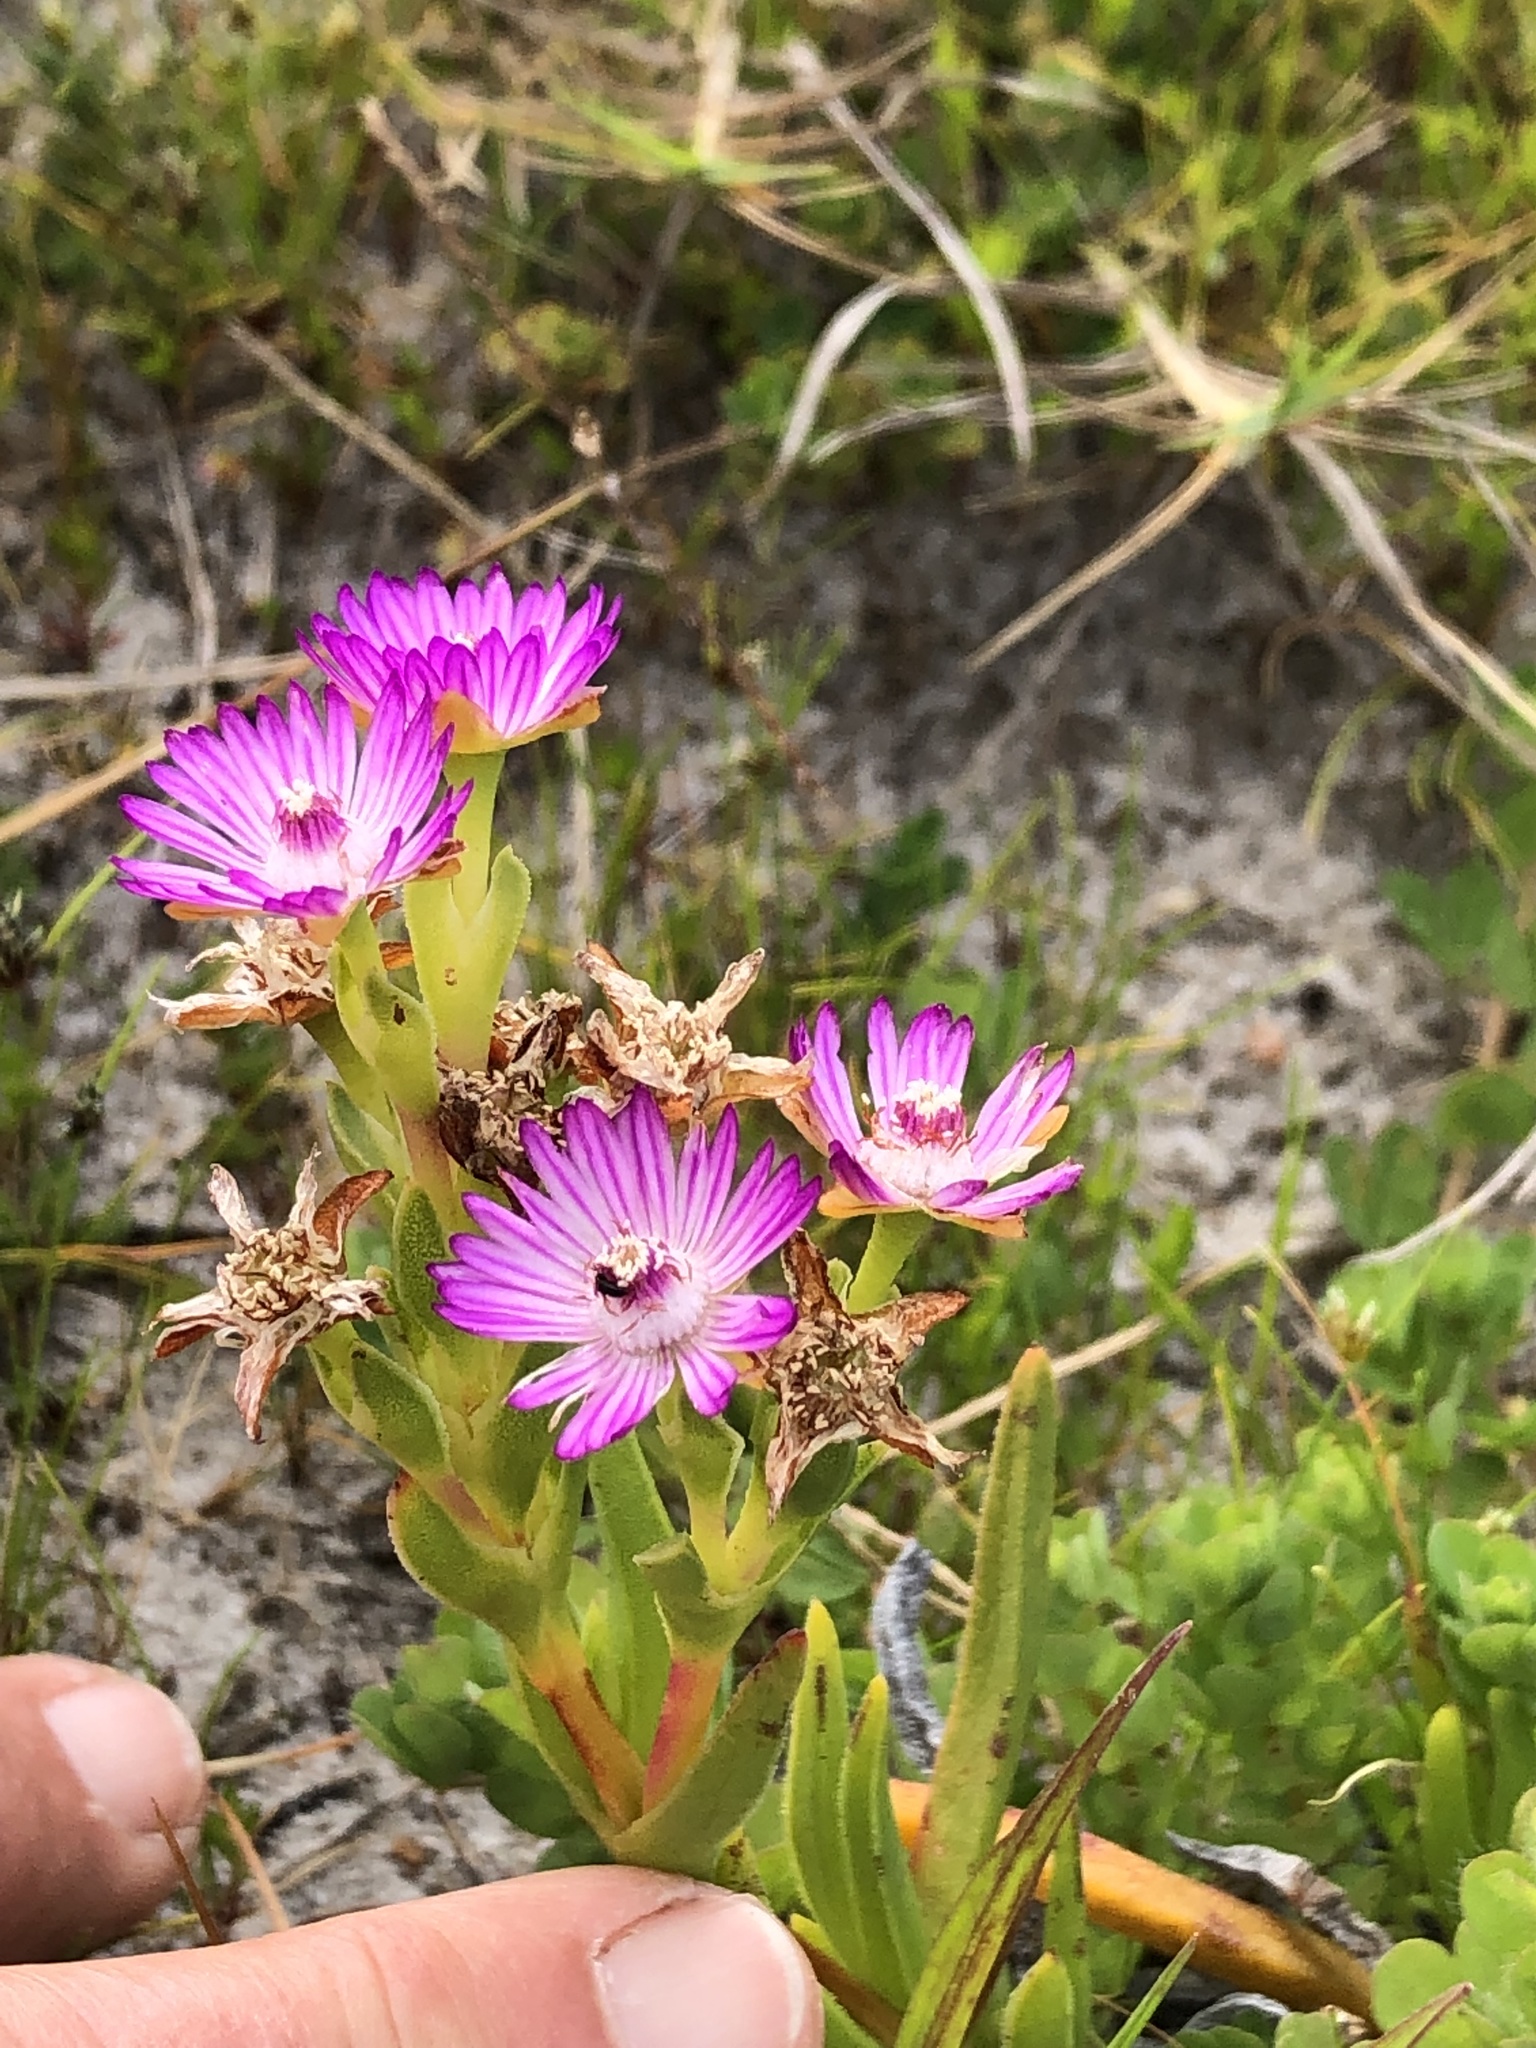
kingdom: Plantae
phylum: Tracheophyta
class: Magnoliopsida
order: Caryophyllales
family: Aizoaceae
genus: Ruschia
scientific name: Ruschia geminiflora
